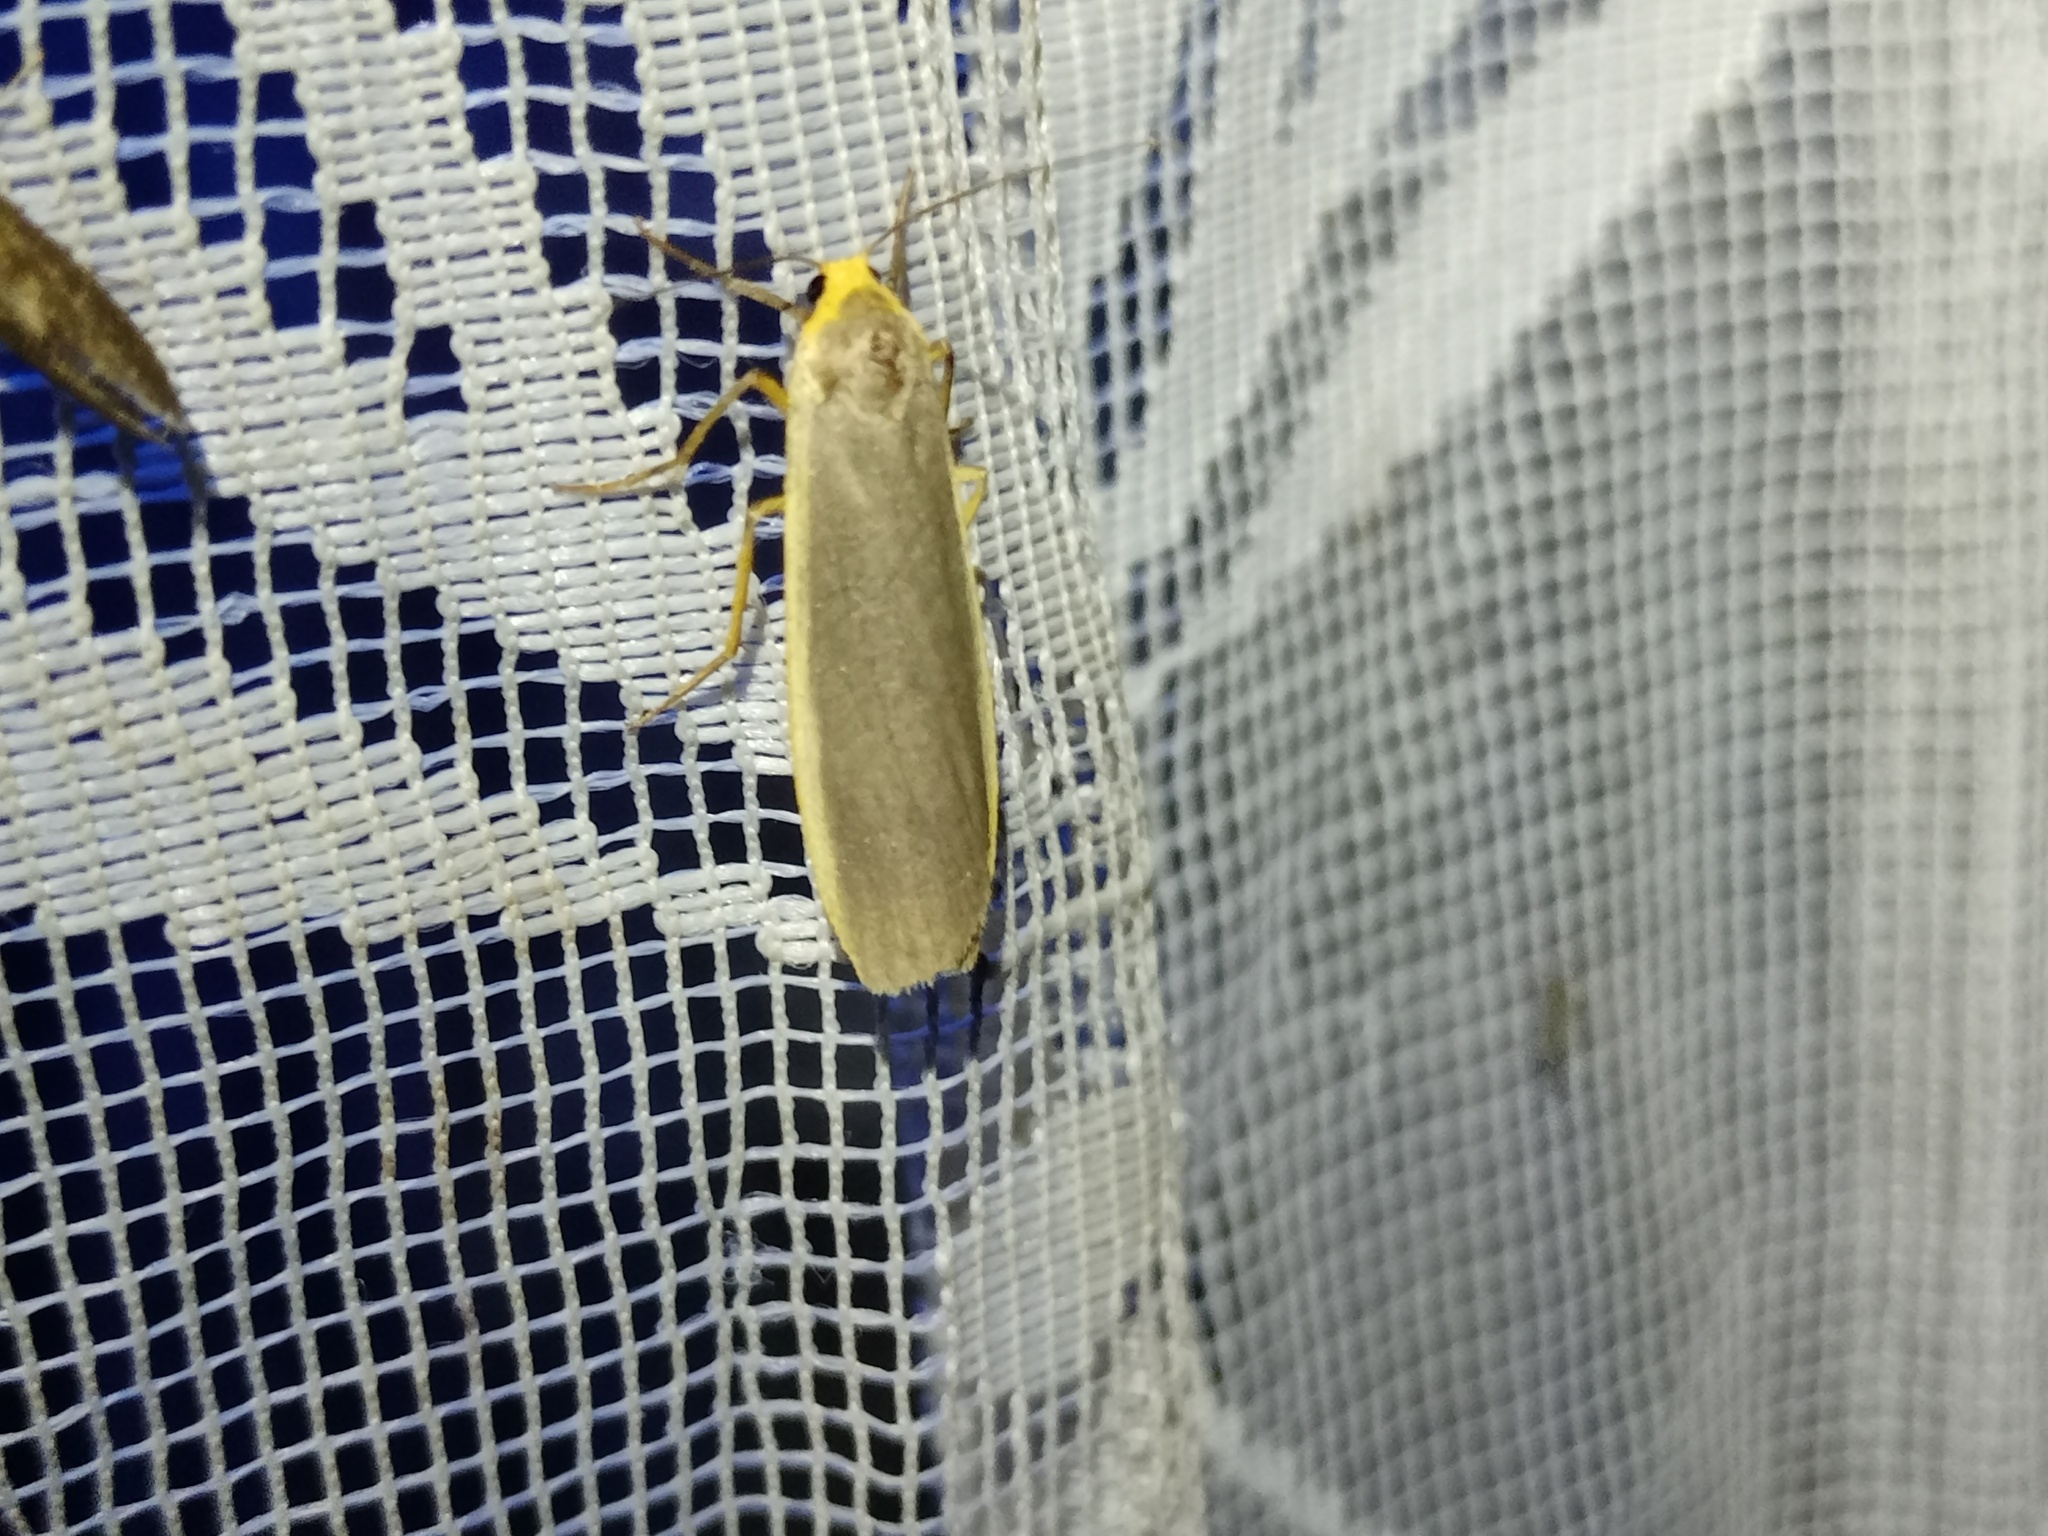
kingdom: Animalia
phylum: Arthropoda
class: Insecta
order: Lepidoptera
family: Erebidae
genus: Nyea
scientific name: Nyea lurideola
